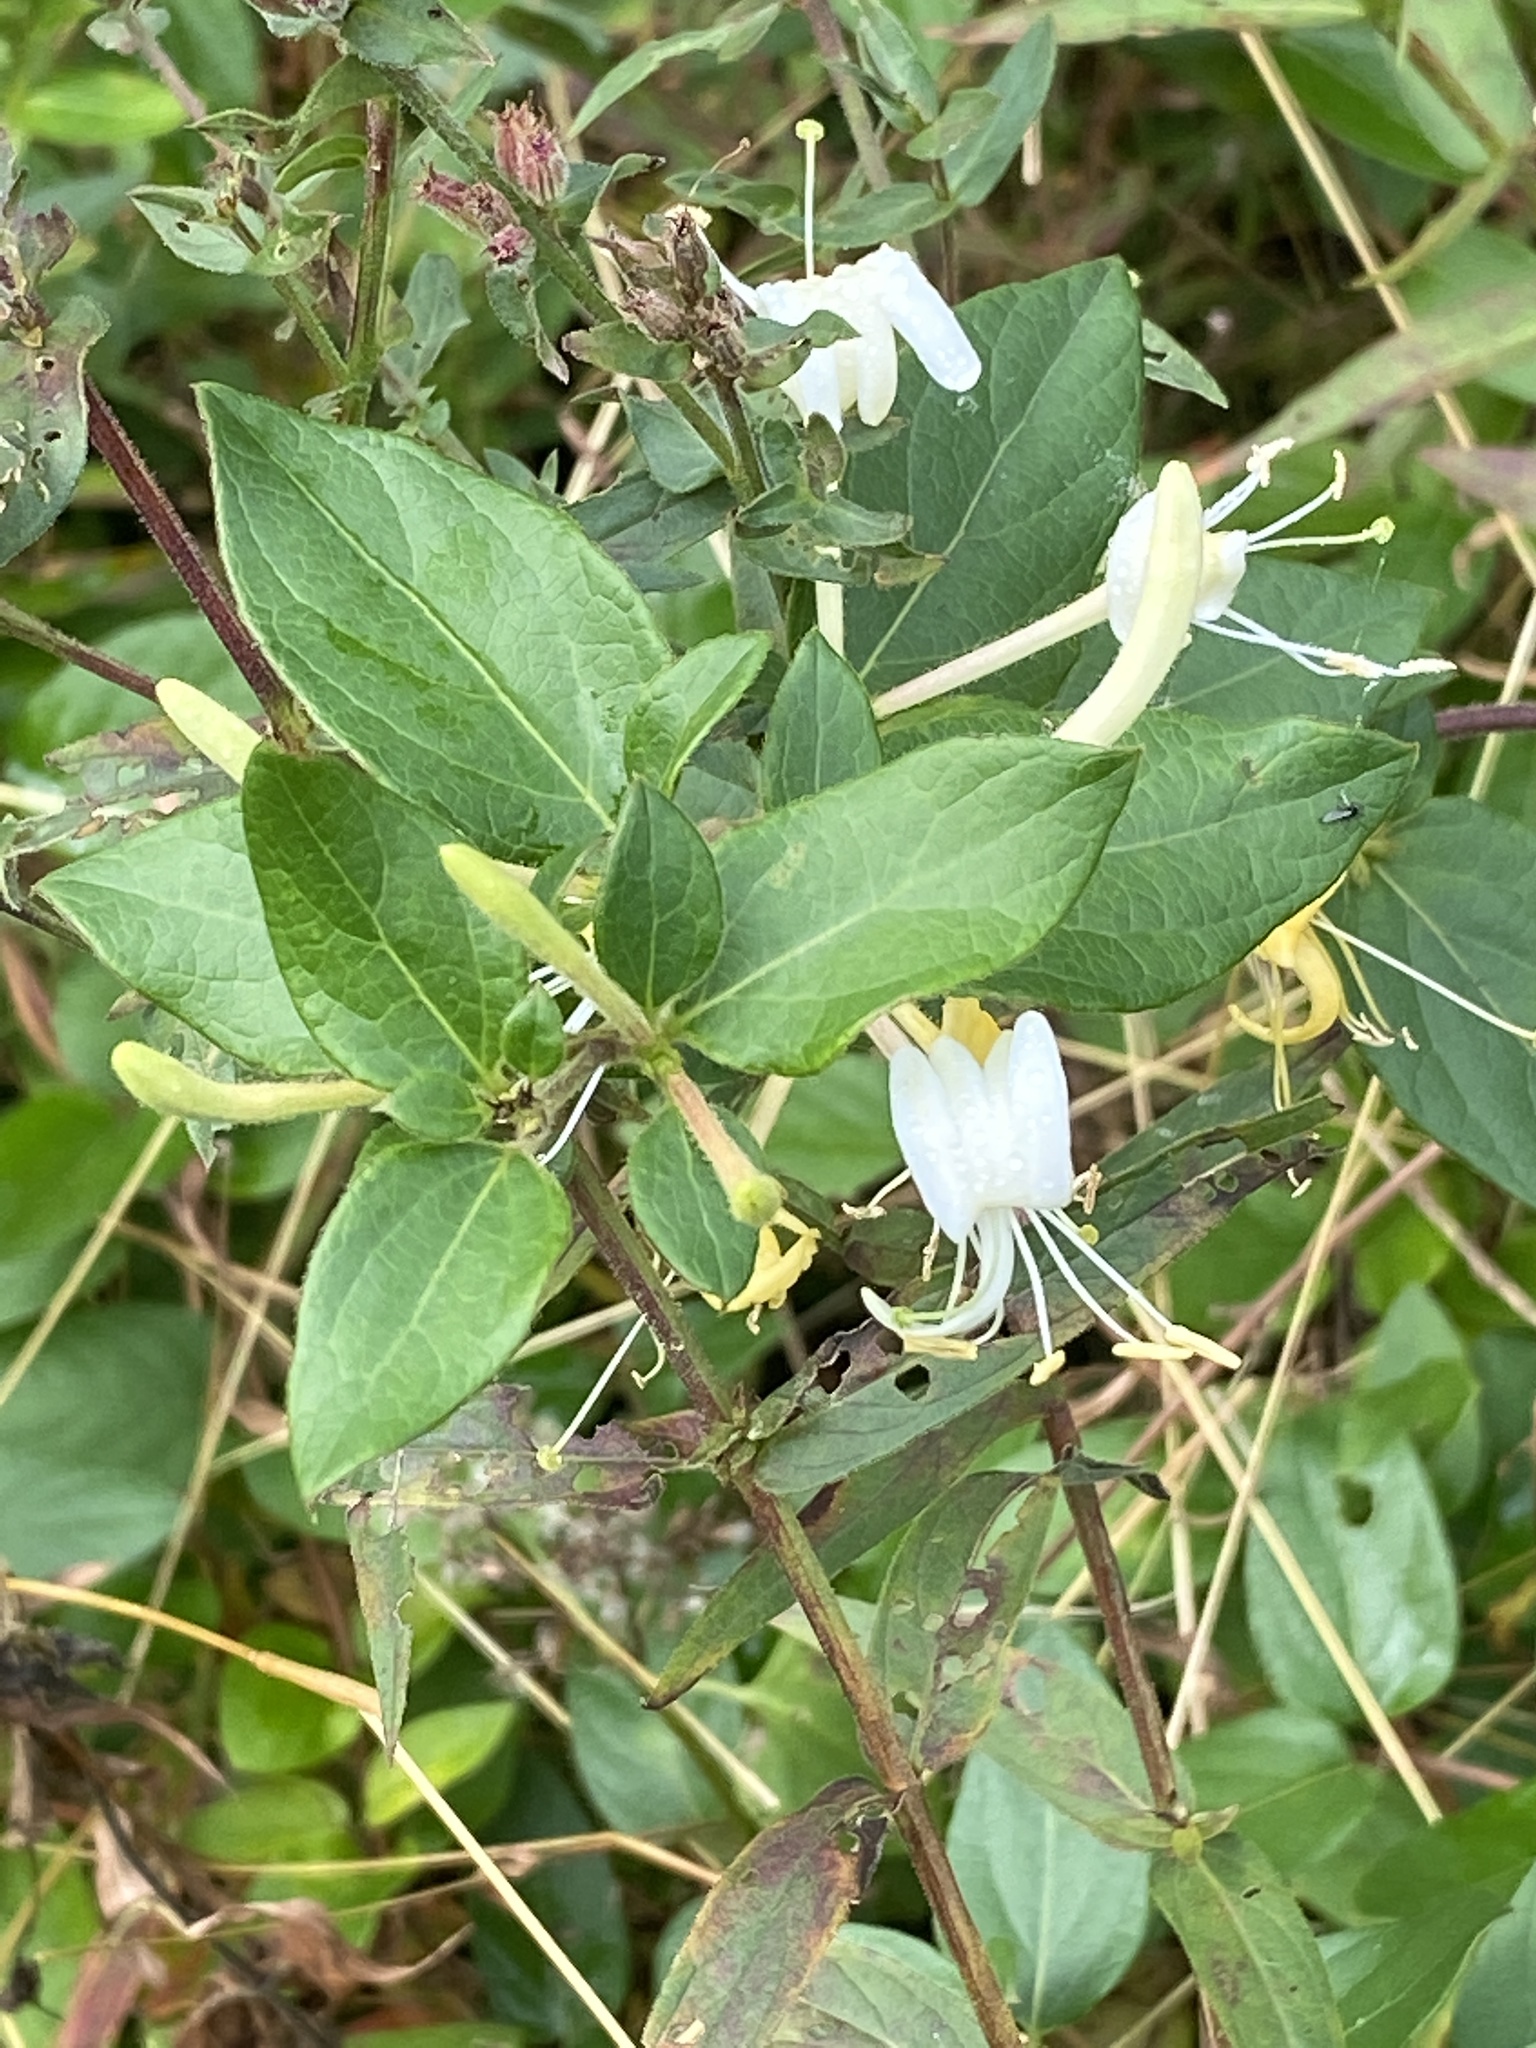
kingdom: Plantae
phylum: Tracheophyta
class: Magnoliopsida
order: Dipsacales
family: Caprifoliaceae
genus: Lonicera
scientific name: Lonicera japonica
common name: Japanese honeysuckle
